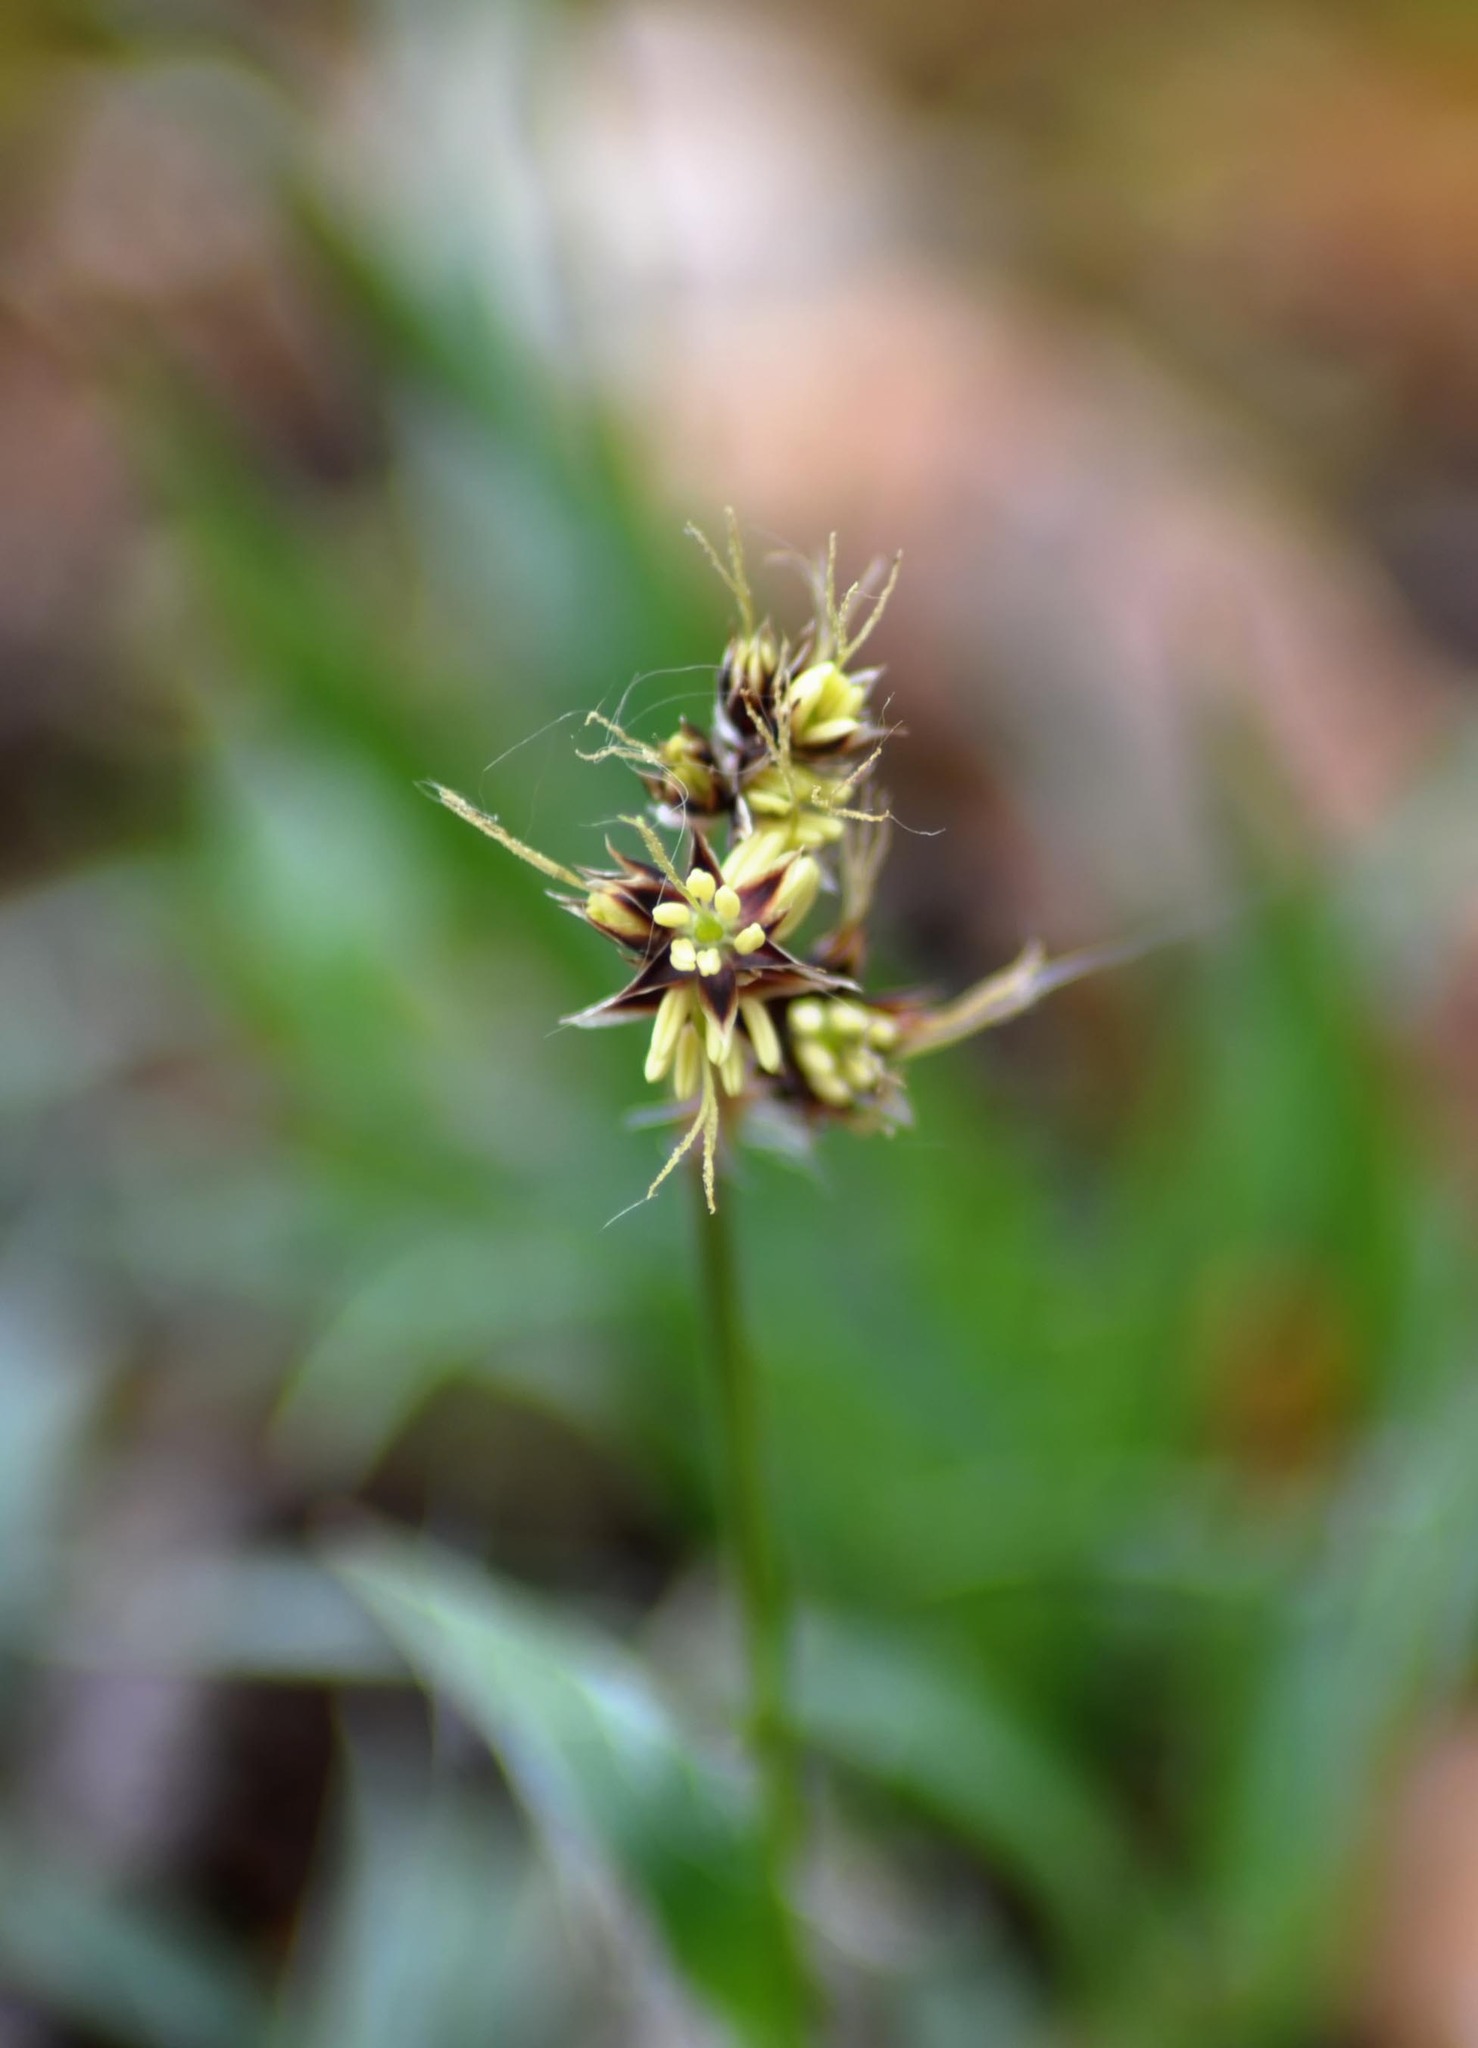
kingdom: Plantae
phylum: Tracheophyta
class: Liliopsida
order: Poales
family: Juncaceae
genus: Luzula
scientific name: Luzula campestris
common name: Field wood-rush
